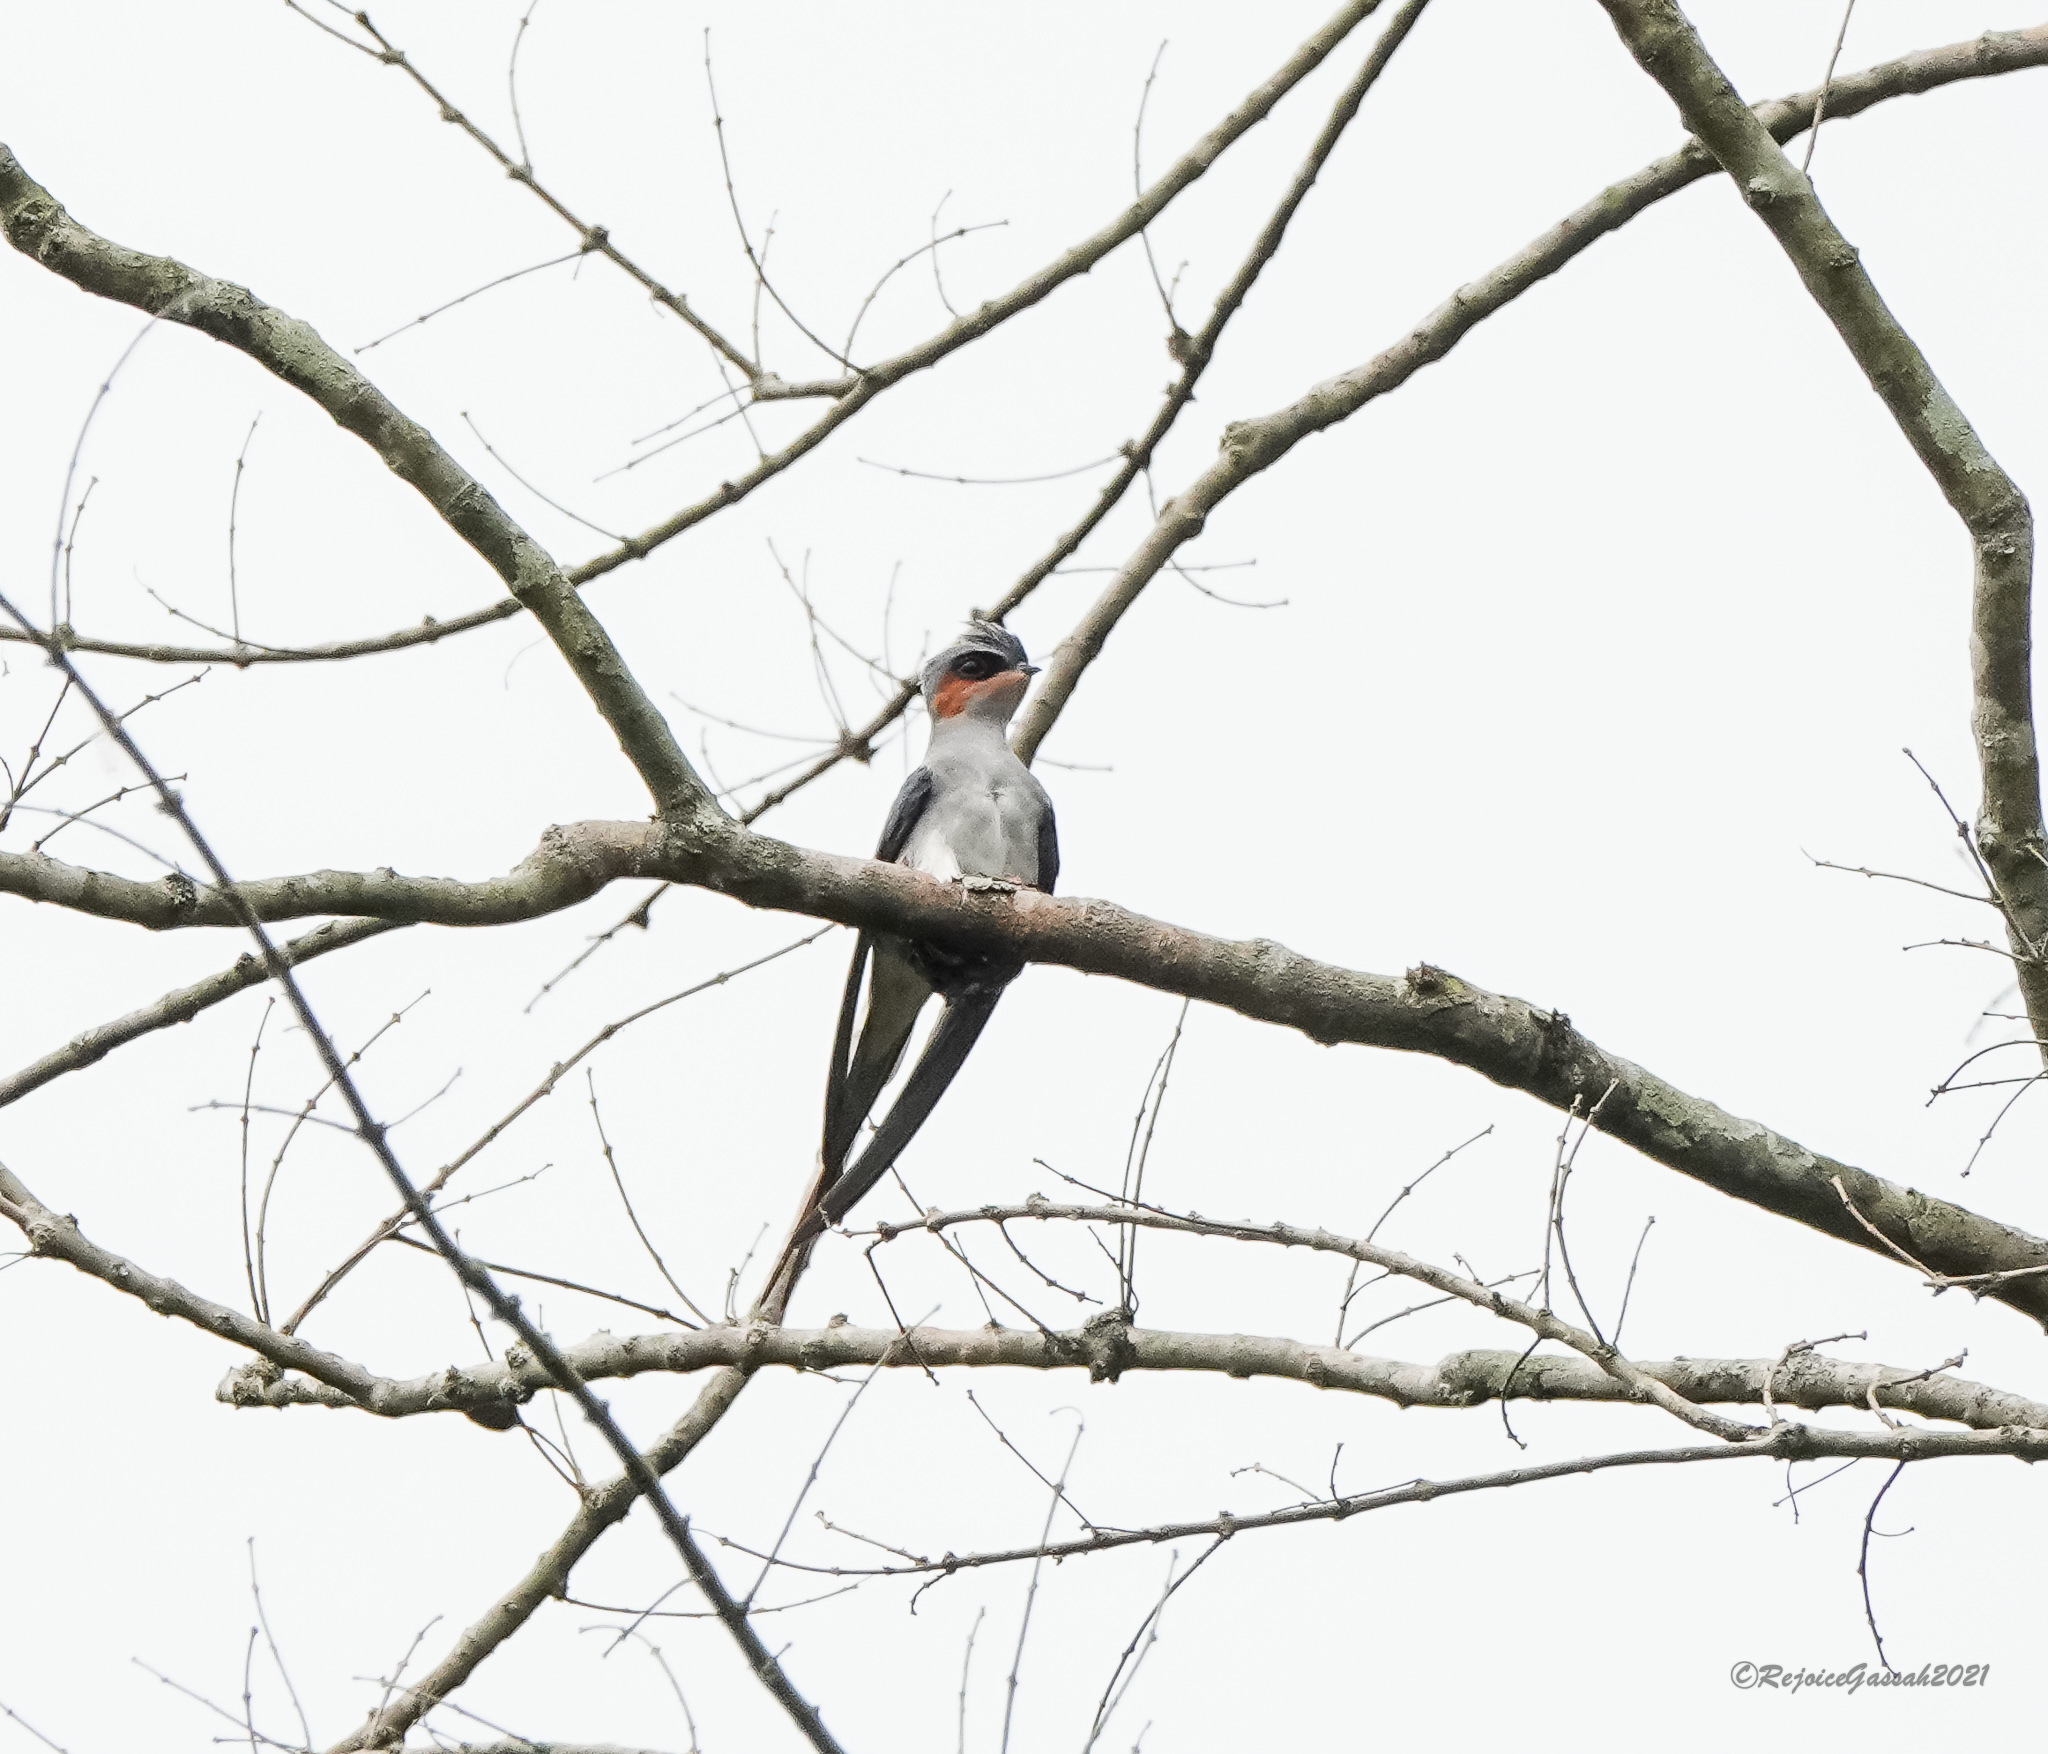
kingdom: Animalia
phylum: Chordata
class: Aves
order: Apodiformes
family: Hemiprocnidae
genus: Hemiprocne
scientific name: Hemiprocne coronata
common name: Crested treeswift
